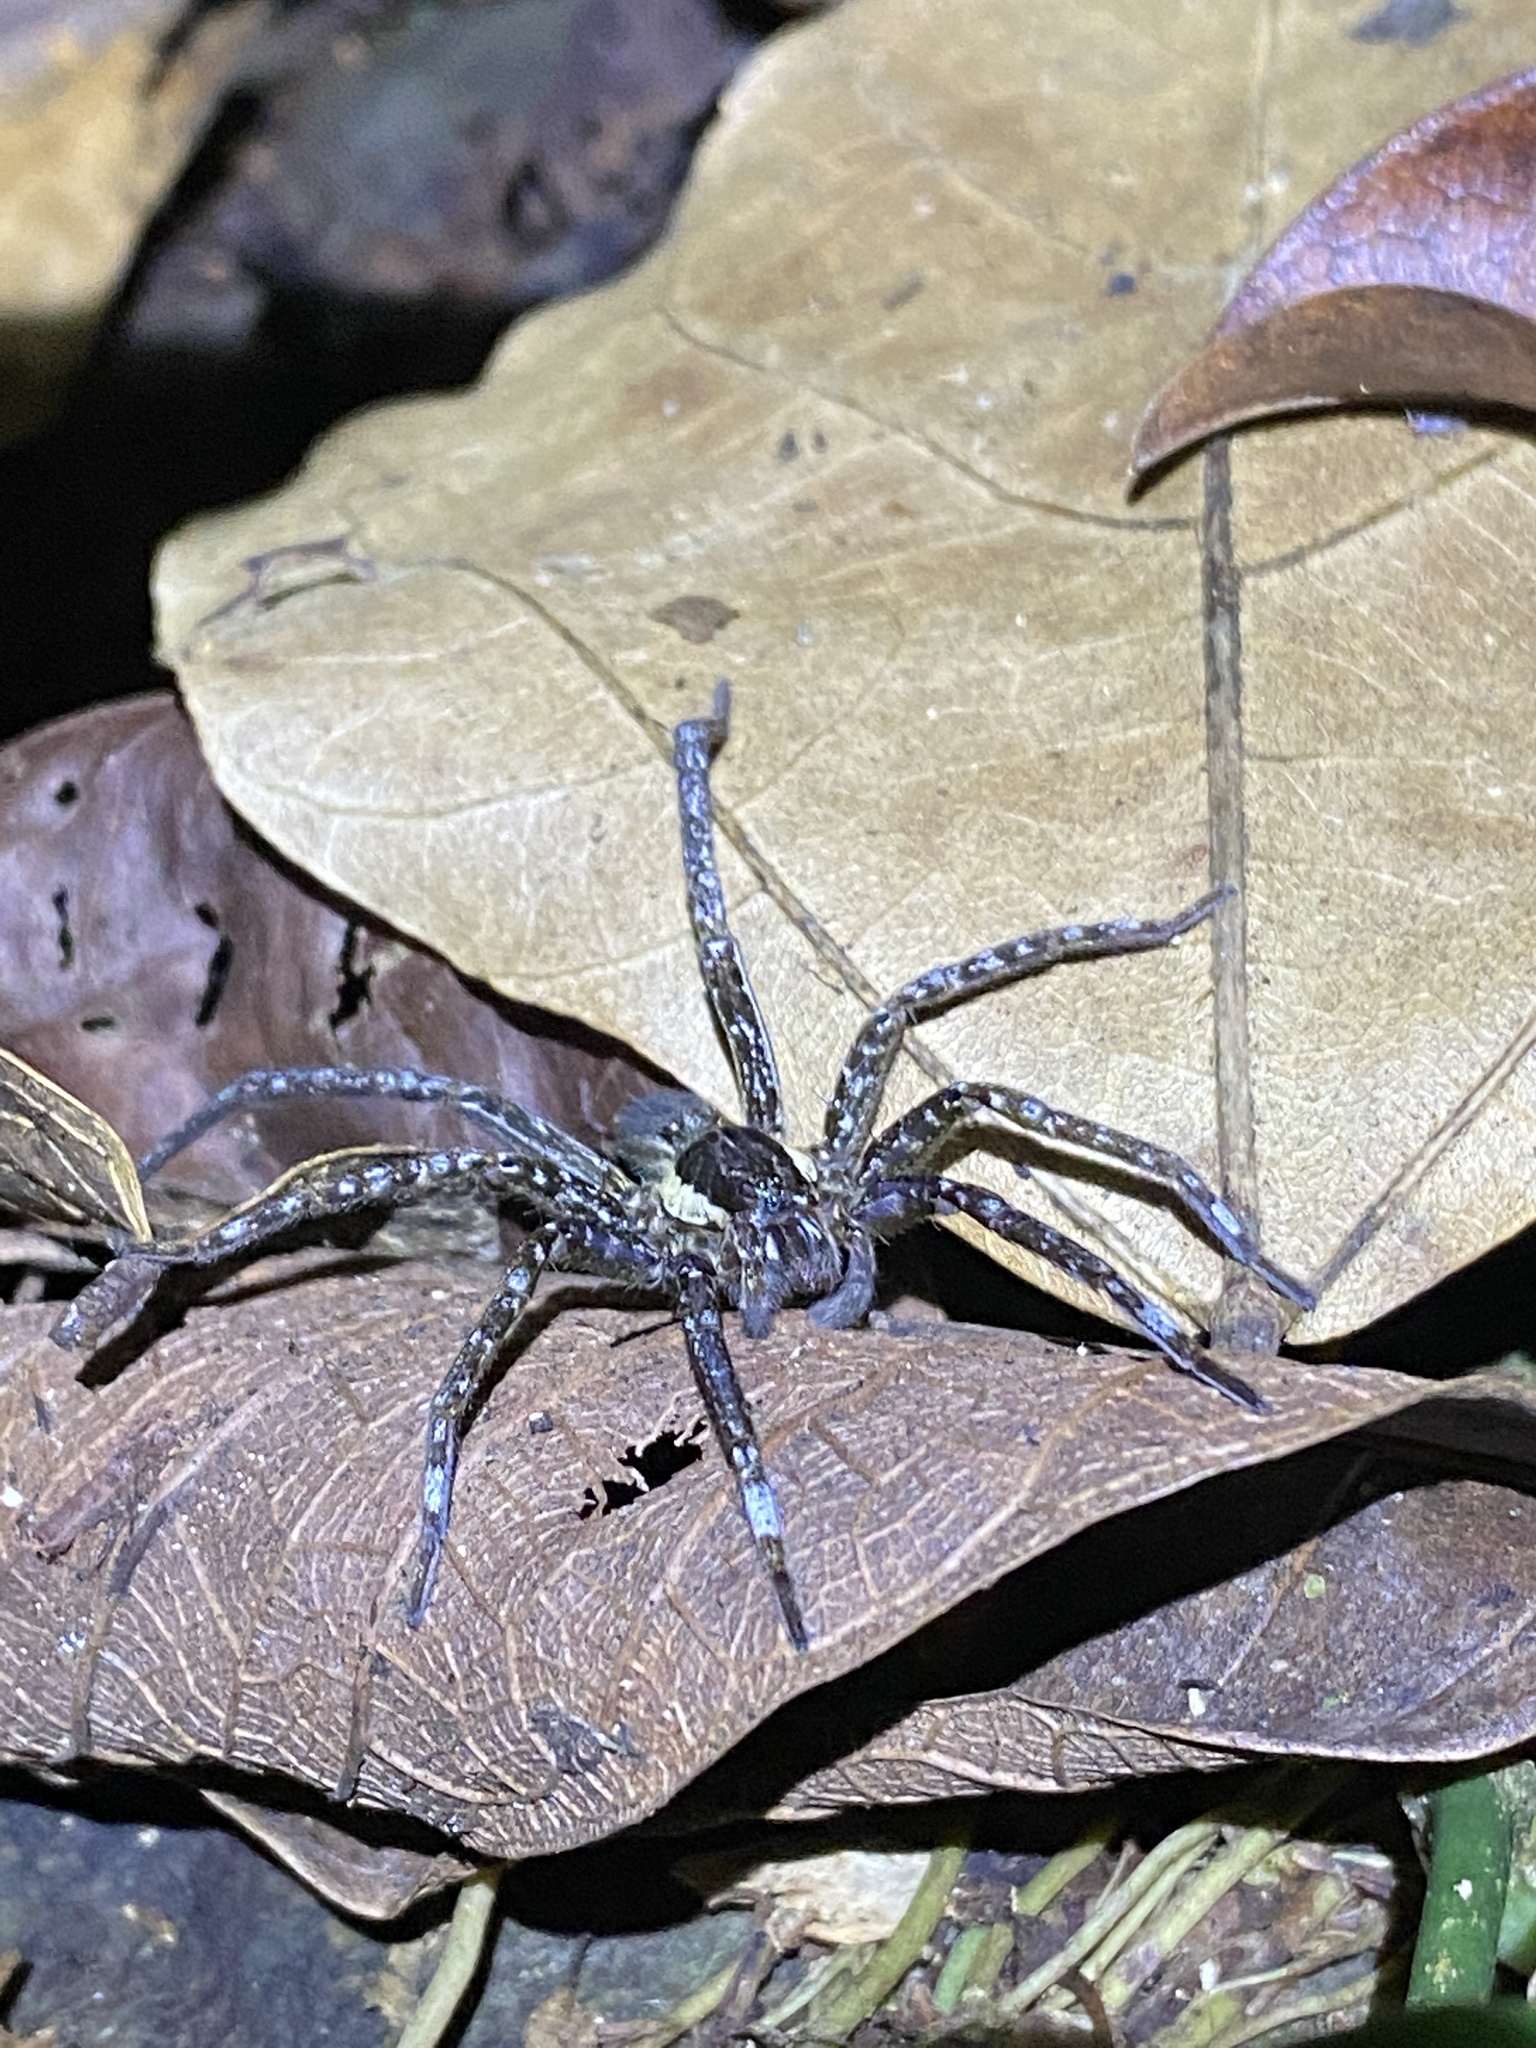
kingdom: Animalia
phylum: Arthropoda
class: Arachnida
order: Araneae
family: Ctenidae
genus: Ancylometes
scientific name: Ancylometes
